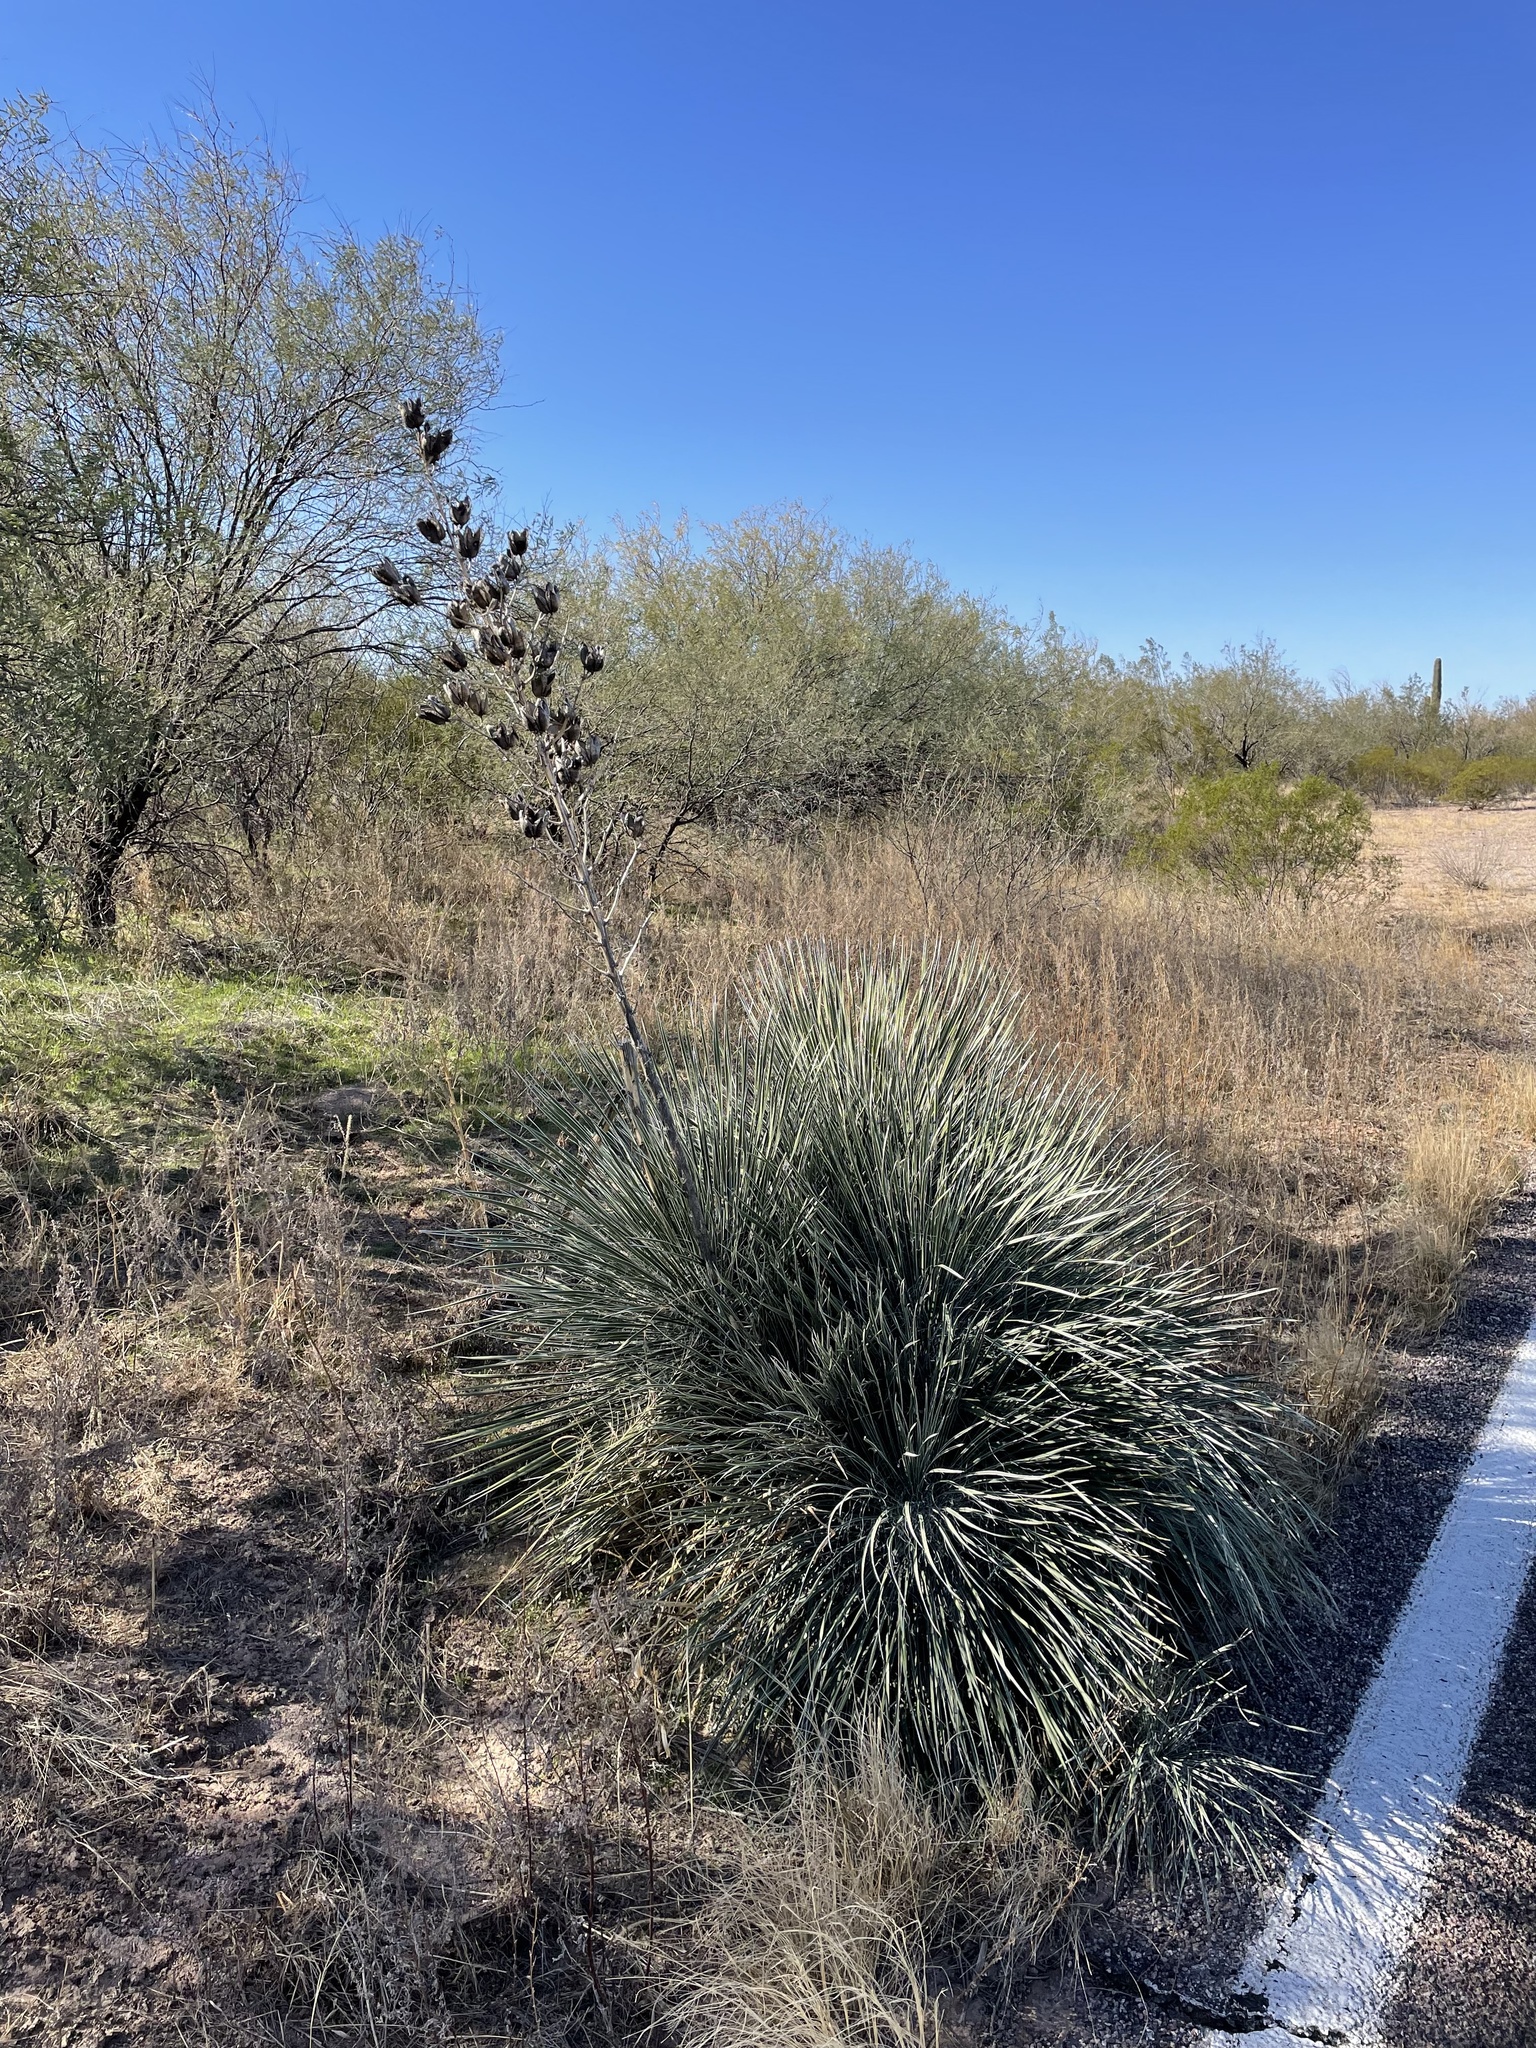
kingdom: Plantae
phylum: Tracheophyta
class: Liliopsida
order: Asparagales
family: Asparagaceae
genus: Yucca
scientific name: Yucca elata
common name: Palmella
